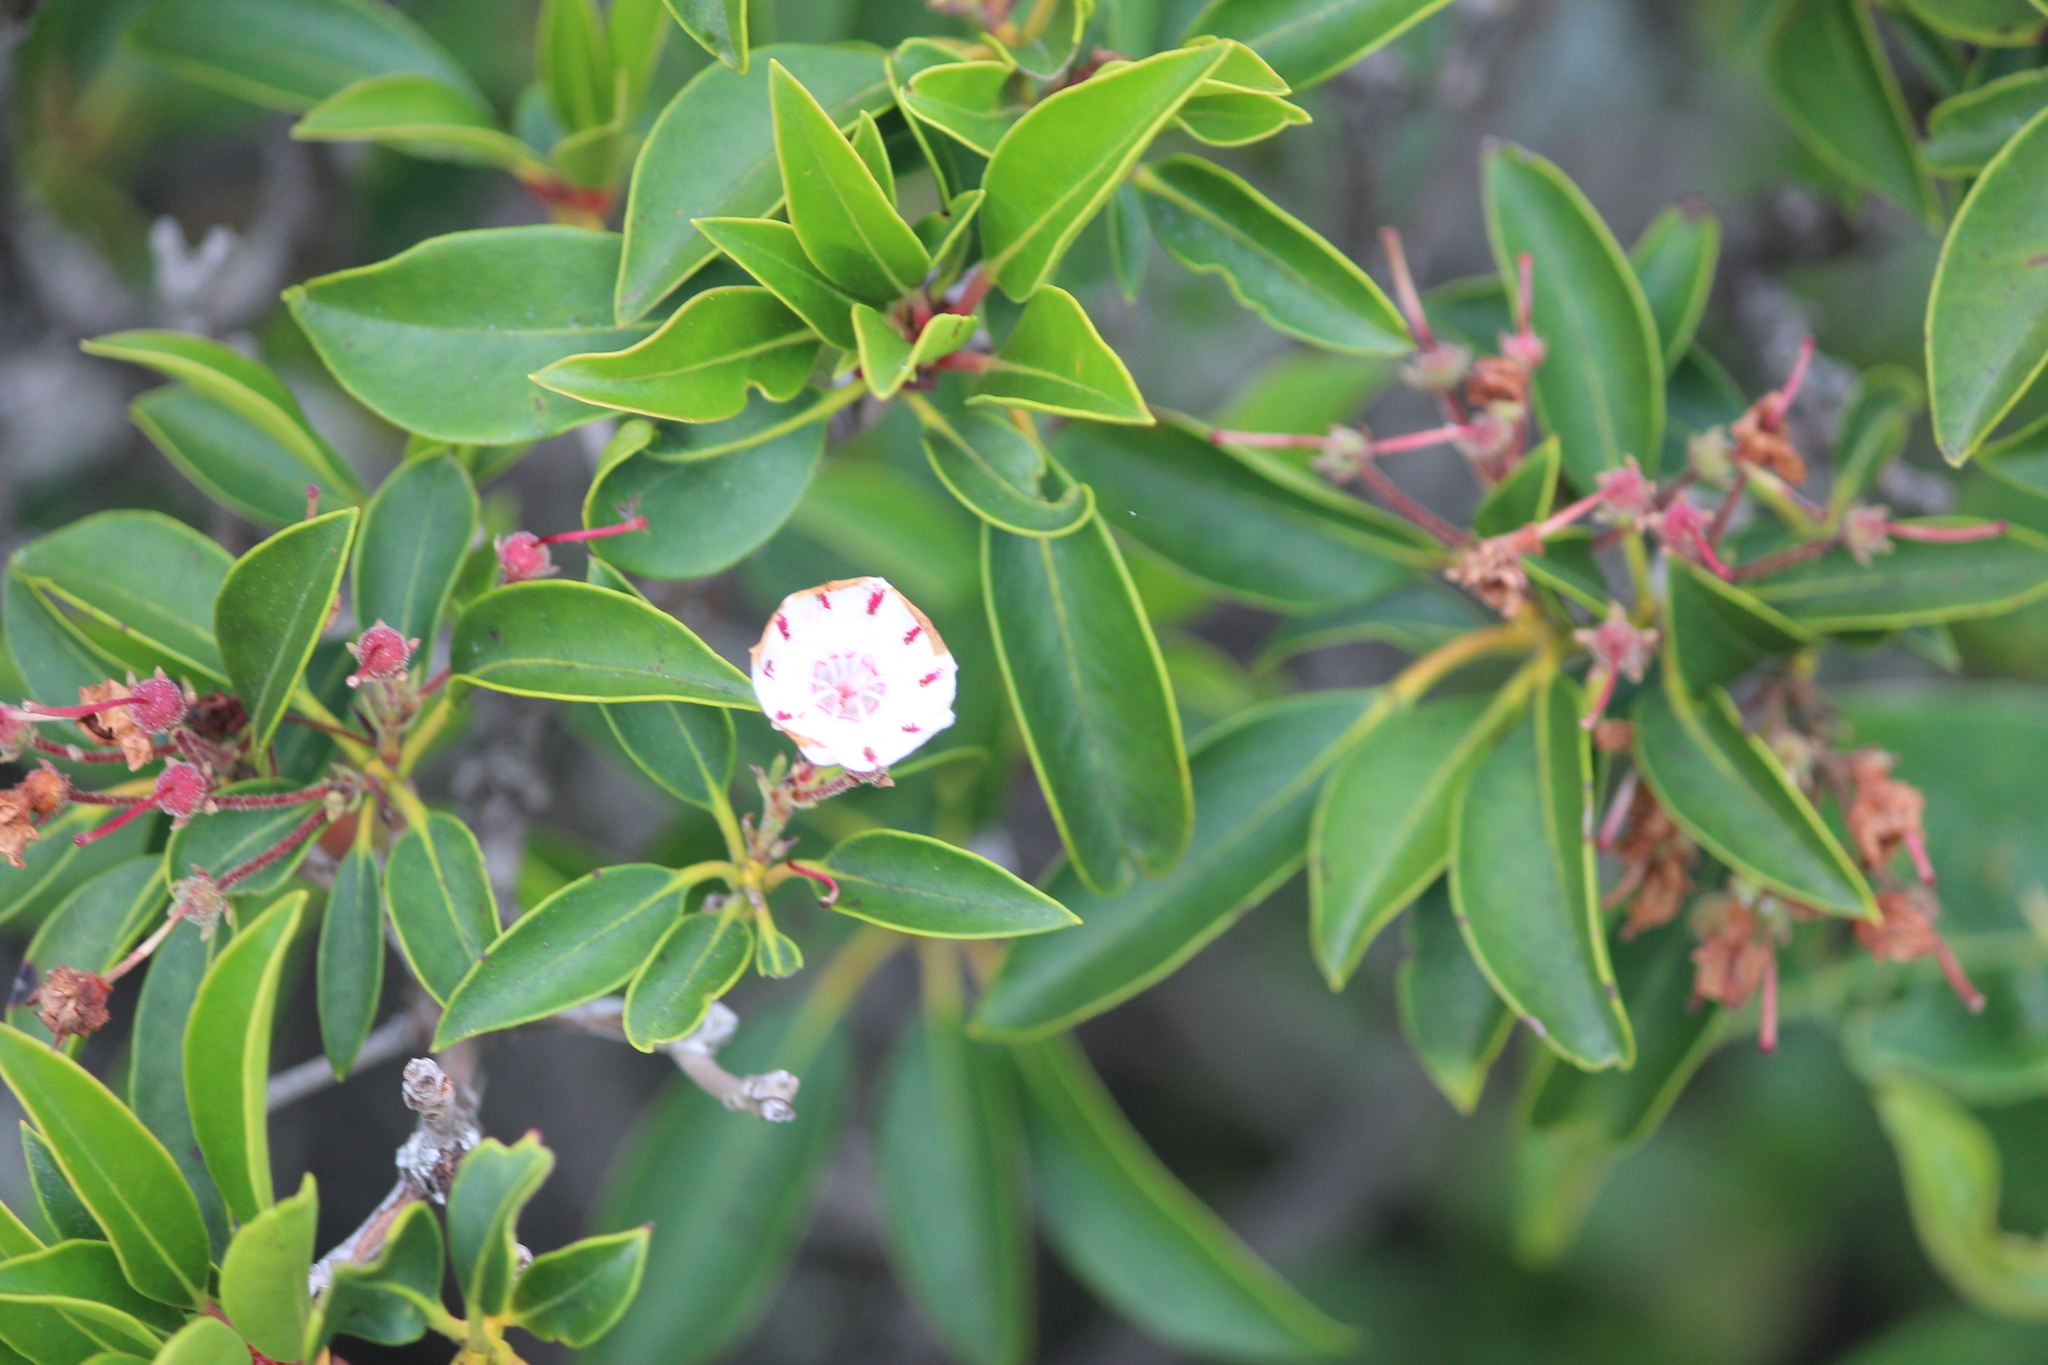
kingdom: Plantae
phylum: Tracheophyta
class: Magnoliopsida
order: Ericales
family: Ericaceae
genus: Kalmia
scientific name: Kalmia latifolia
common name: Mountain-laurel
